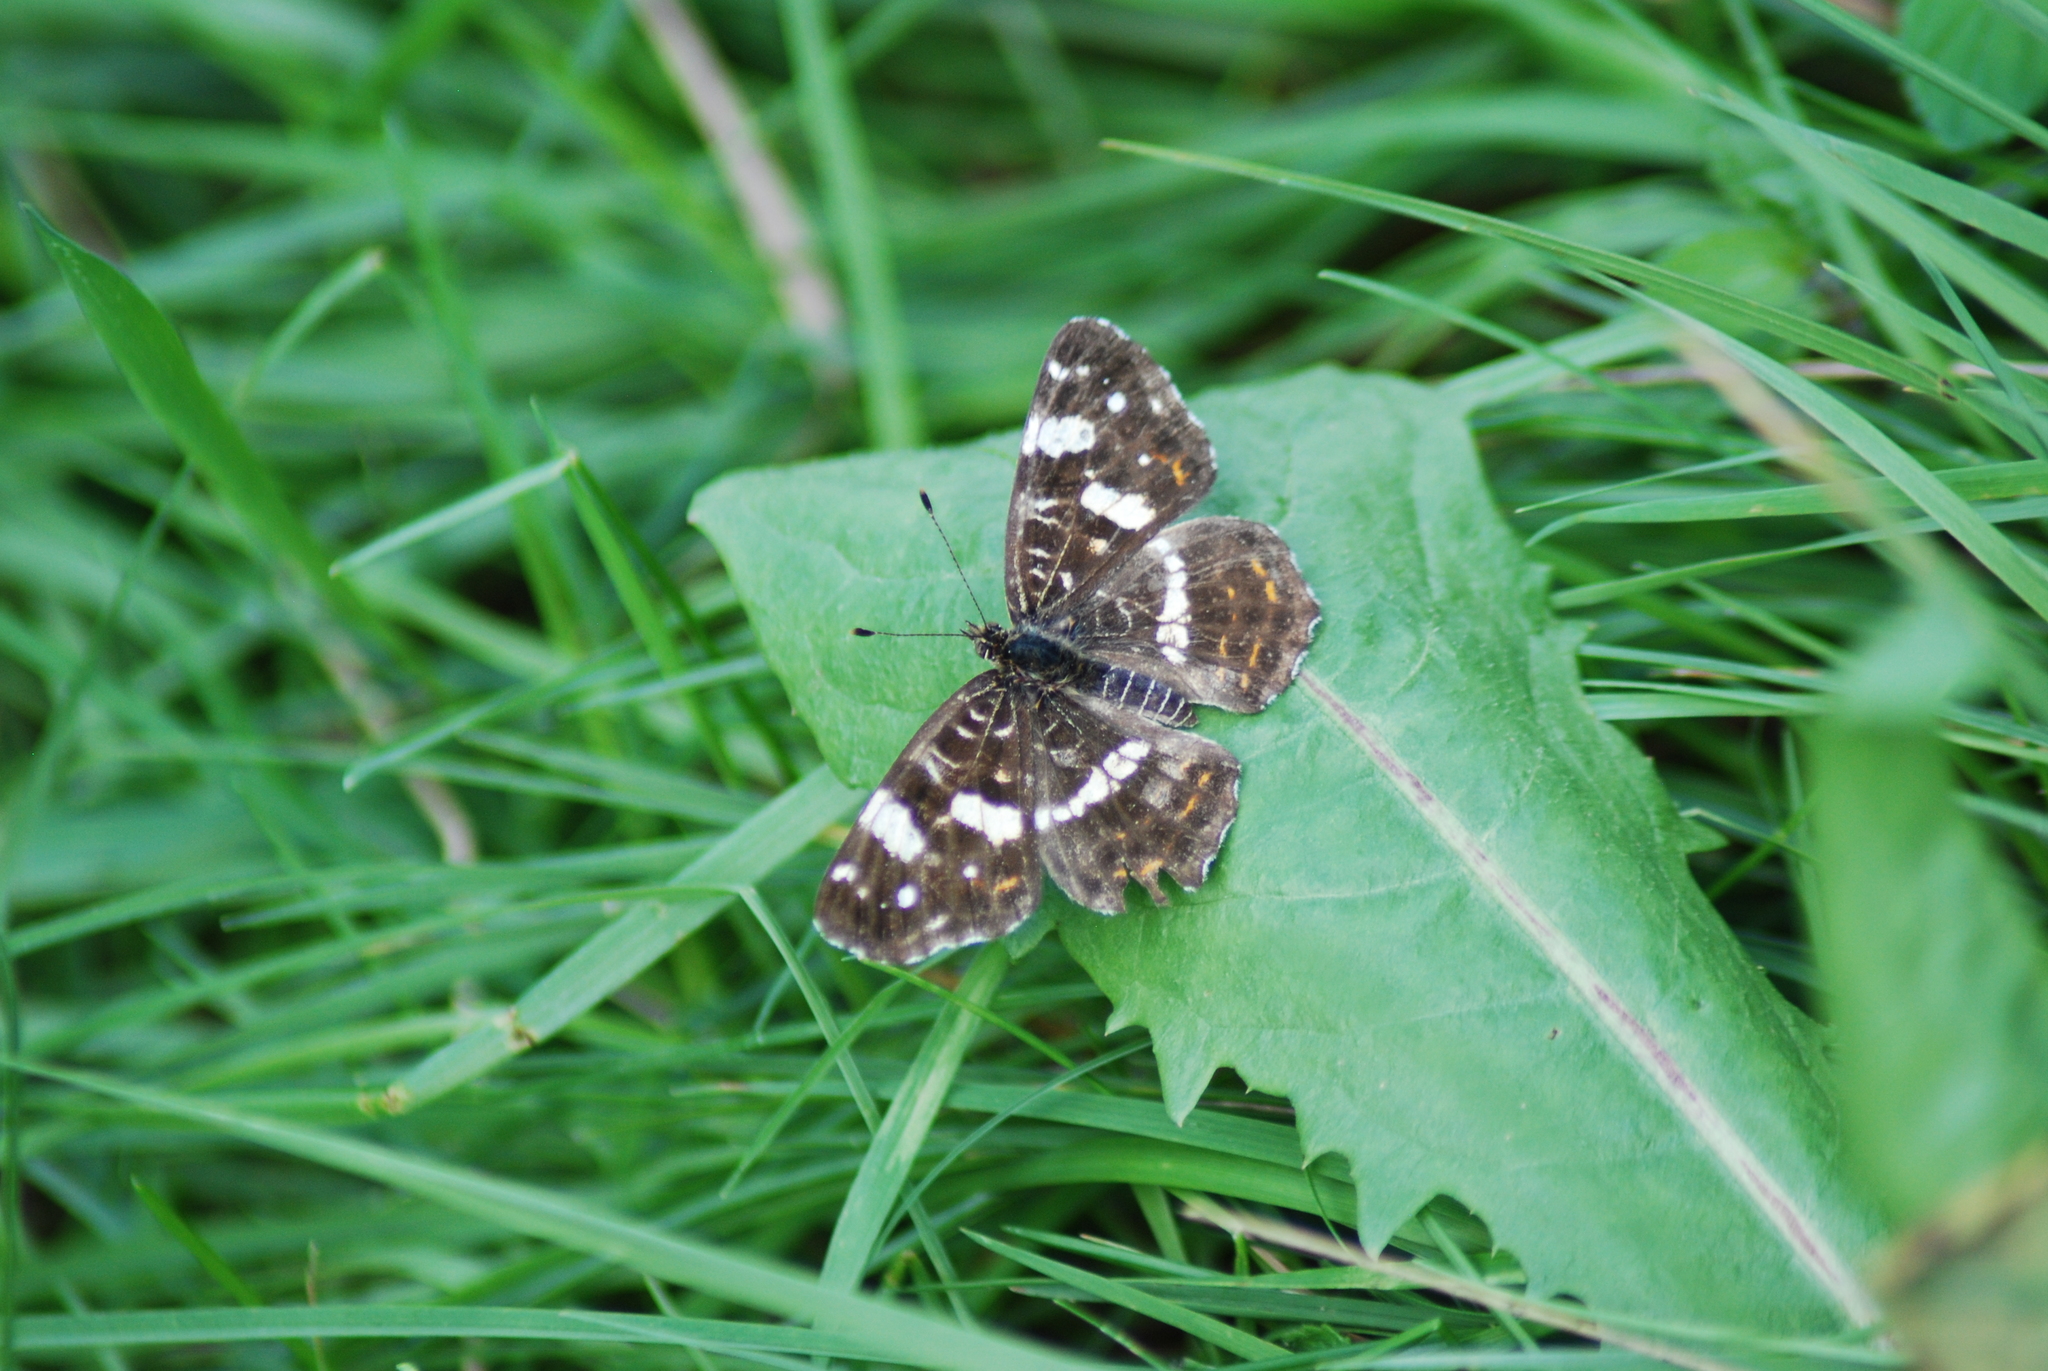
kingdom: Animalia
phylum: Arthropoda
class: Insecta
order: Lepidoptera
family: Nymphalidae
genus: Araschnia
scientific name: Araschnia levana
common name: Map butterfly
